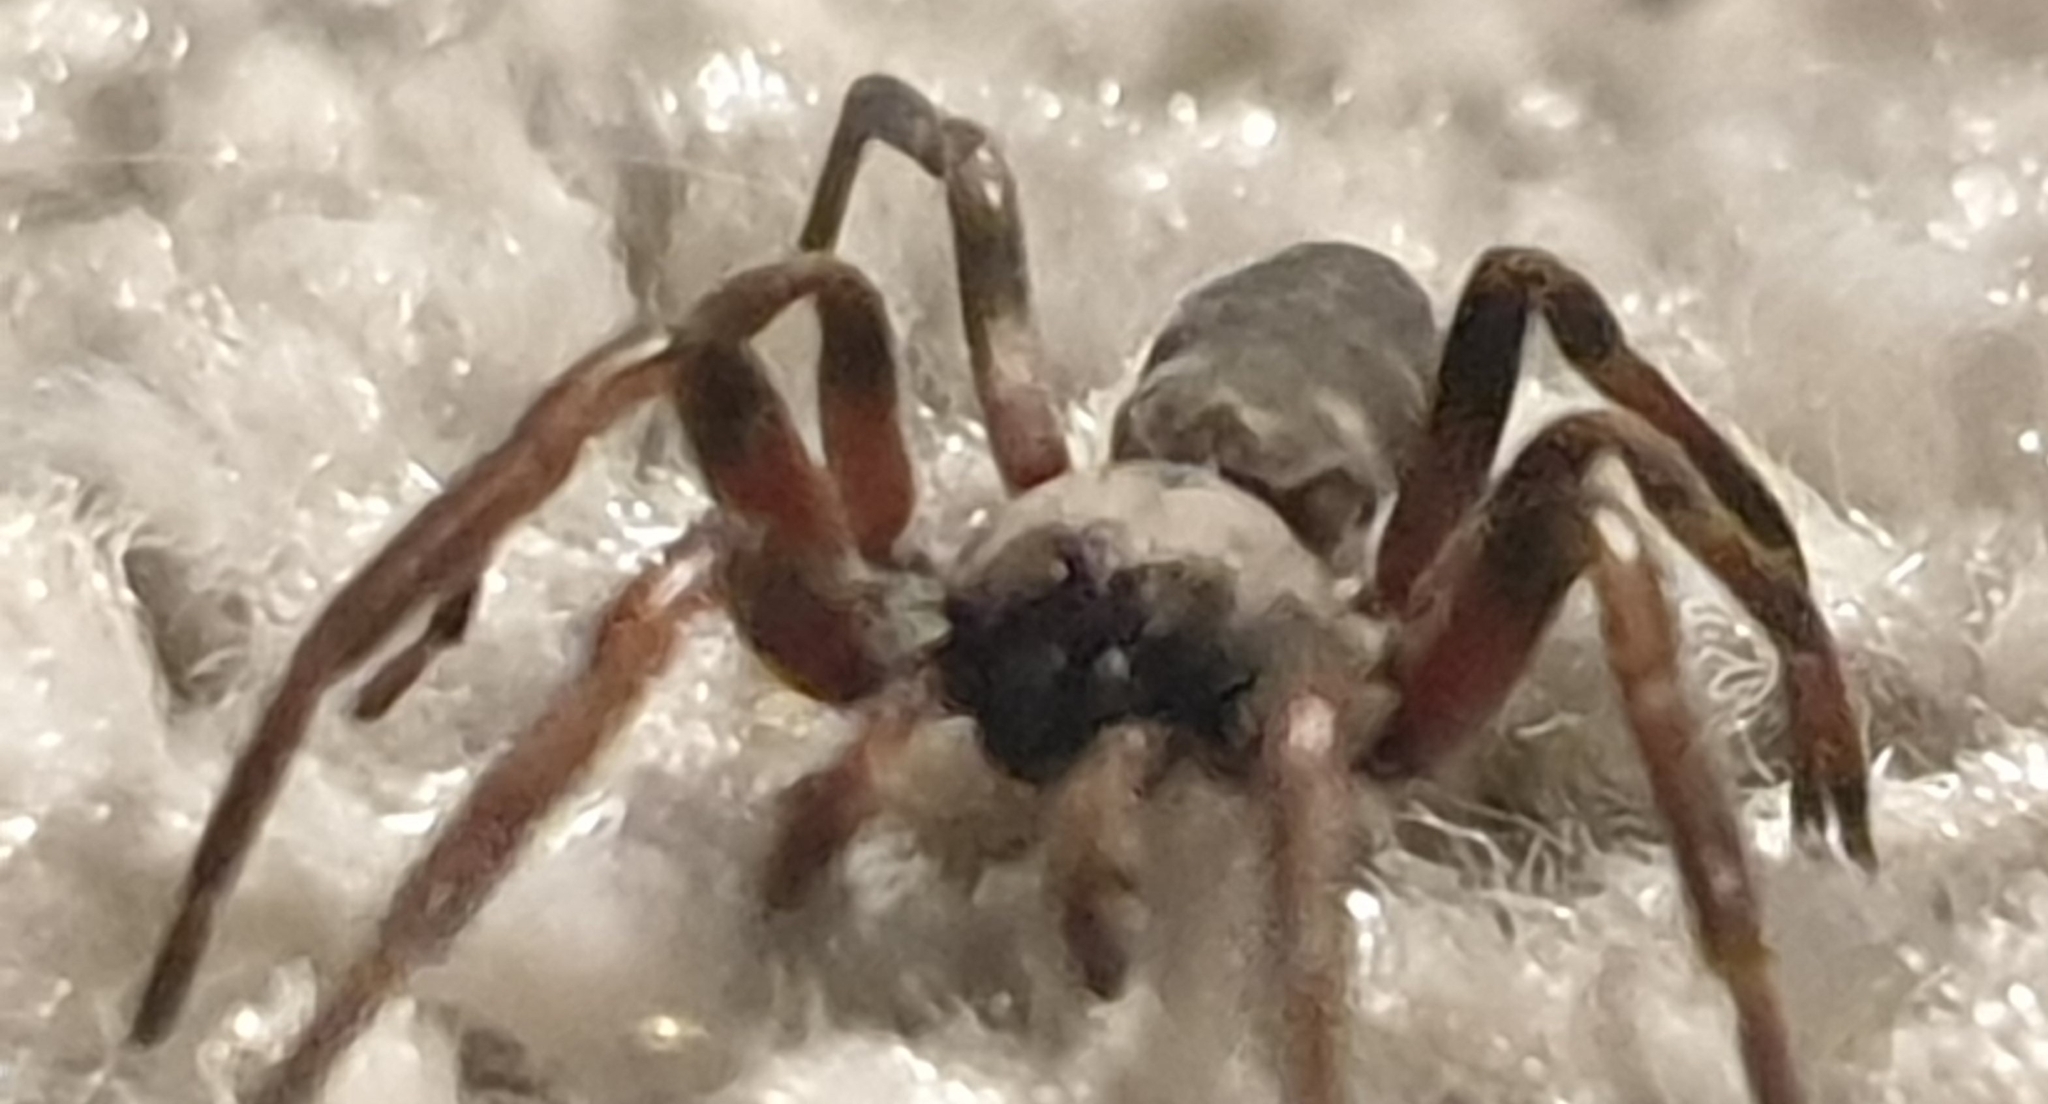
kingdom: Animalia
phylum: Arthropoda
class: Arachnida
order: Araneae
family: Lamponidae
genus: Lampona
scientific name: Lampona murina
